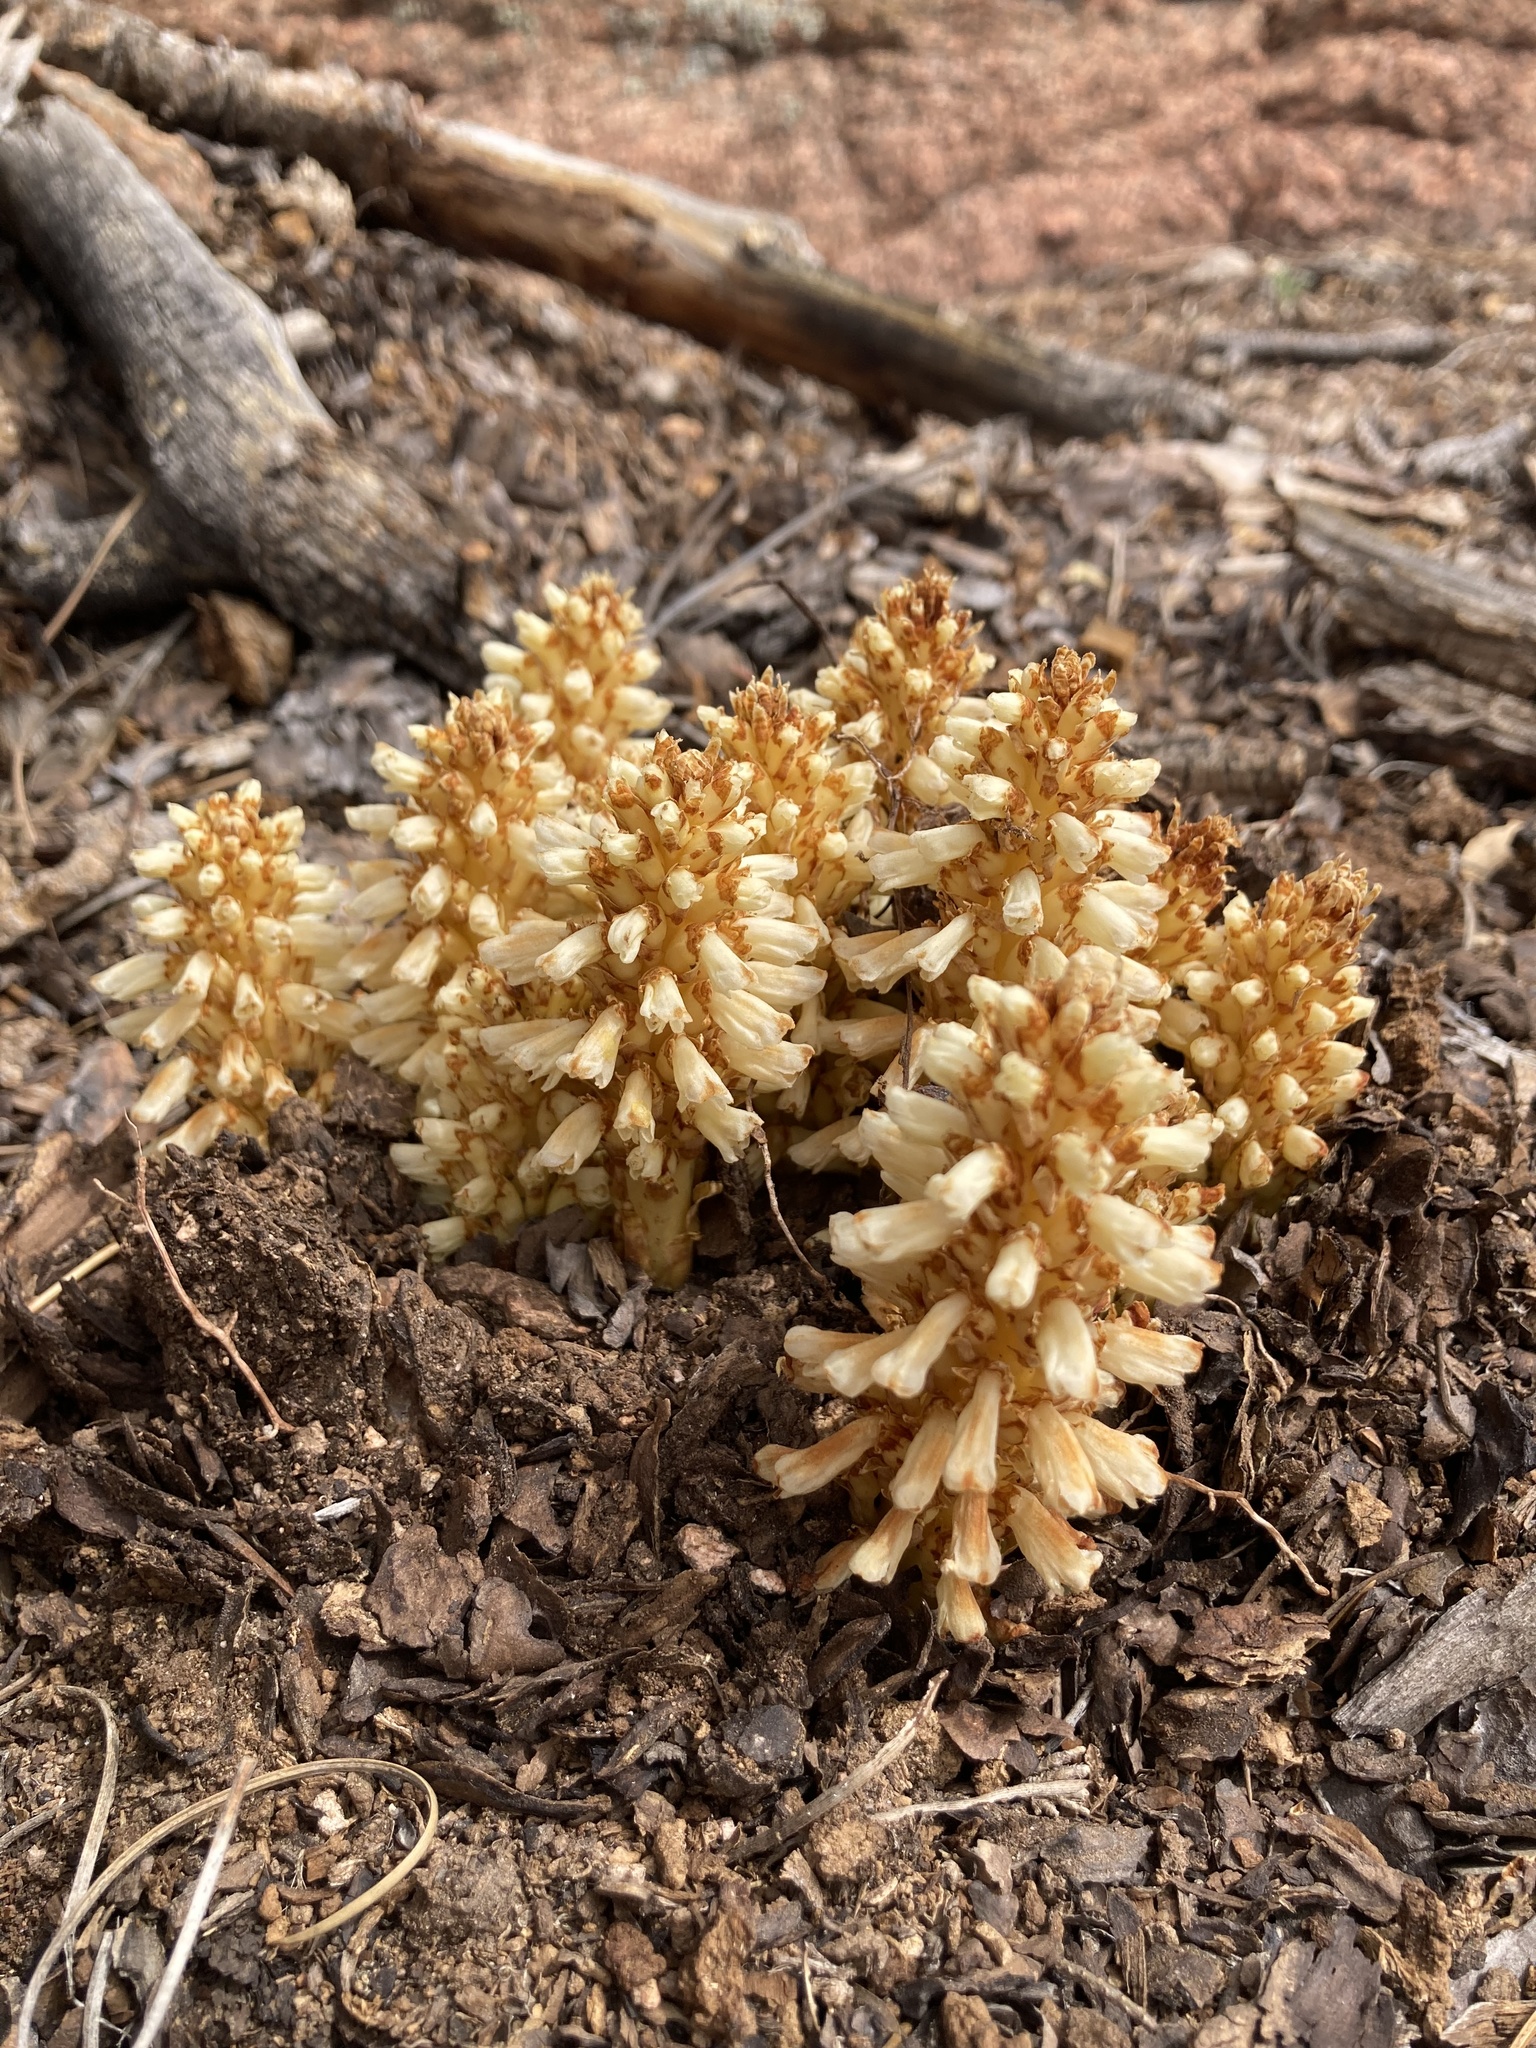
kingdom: Plantae
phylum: Tracheophyta
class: Magnoliopsida
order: Lamiales
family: Orobanchaceae
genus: Conopholis
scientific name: Conopholis alpina
